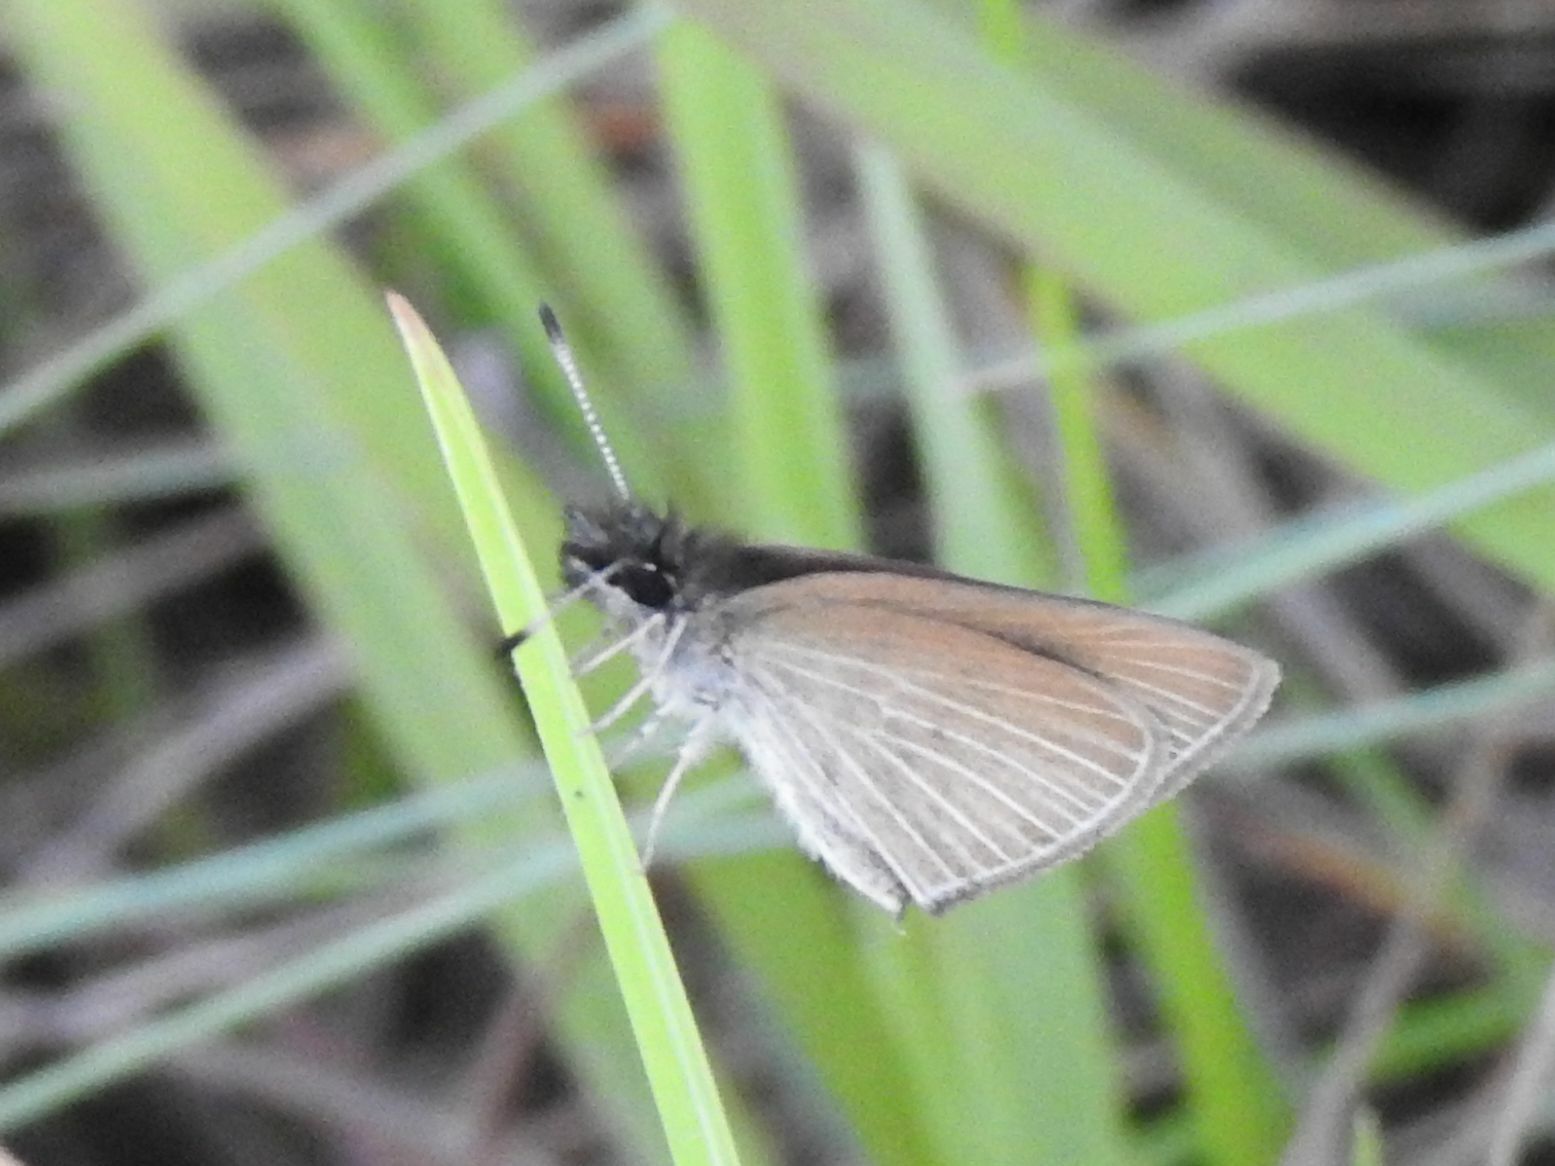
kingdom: Animalia
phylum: Arthropoda
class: Insecta
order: Lepidoptera
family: Hesperiidae
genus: Tsitana
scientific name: Tsitana tsita
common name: Dismal sylph
